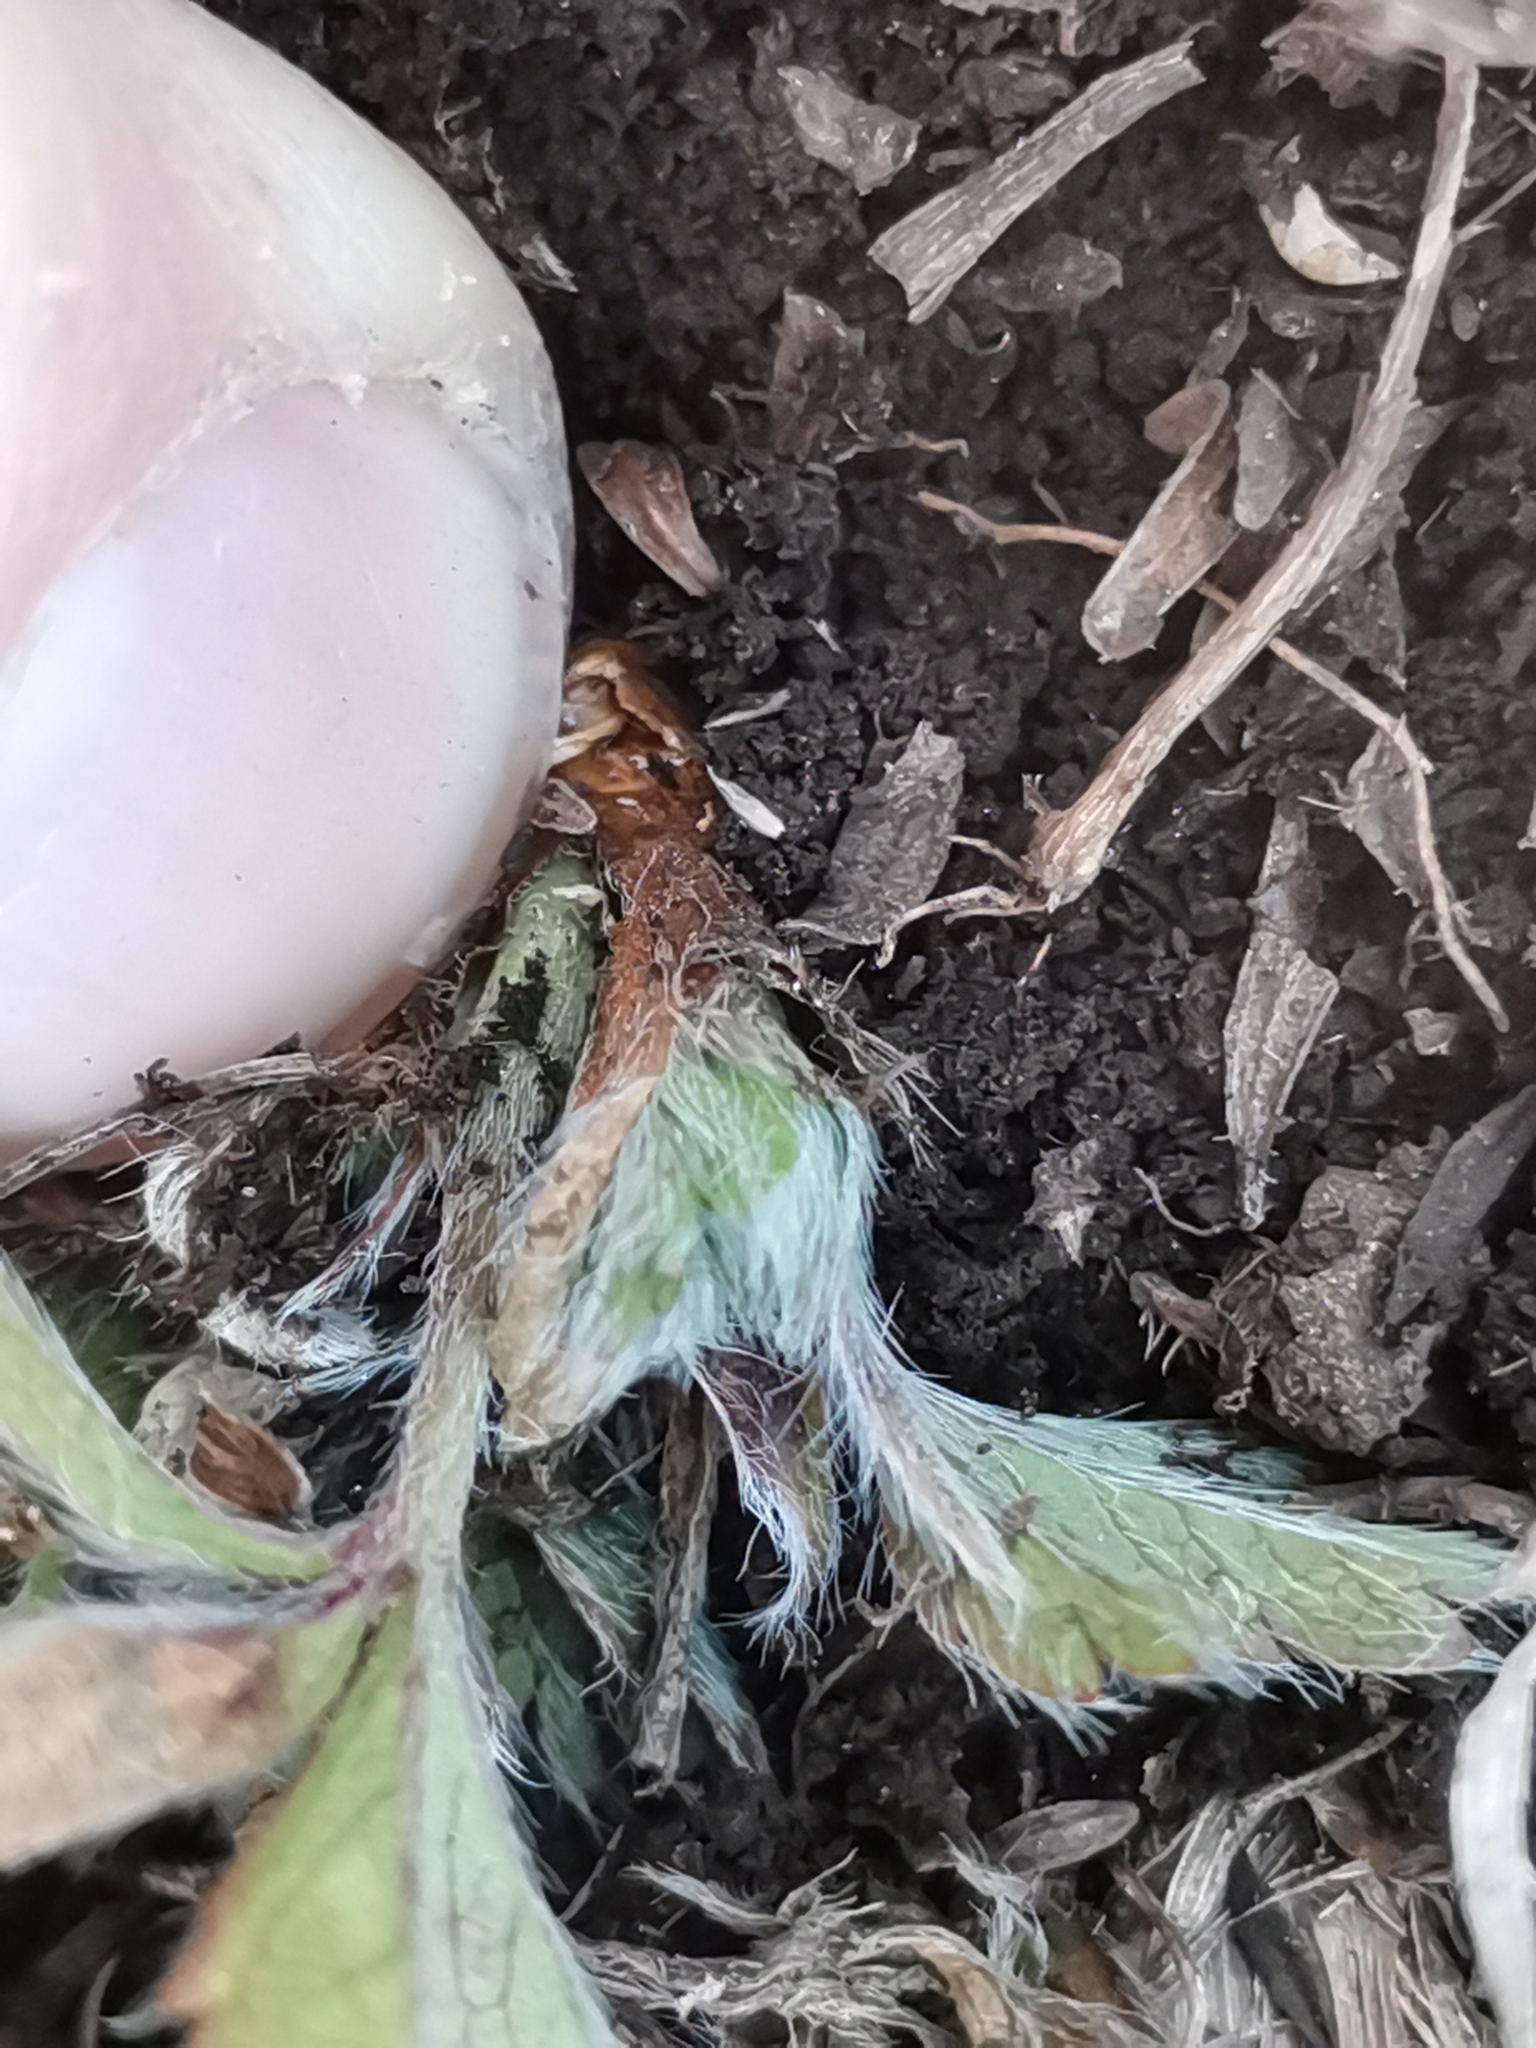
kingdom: Plantae
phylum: Tracheophyta
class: Magnoliopsida
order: Rosales
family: Rosaceae
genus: Potentilla
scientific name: Potentilla heptaphylla
